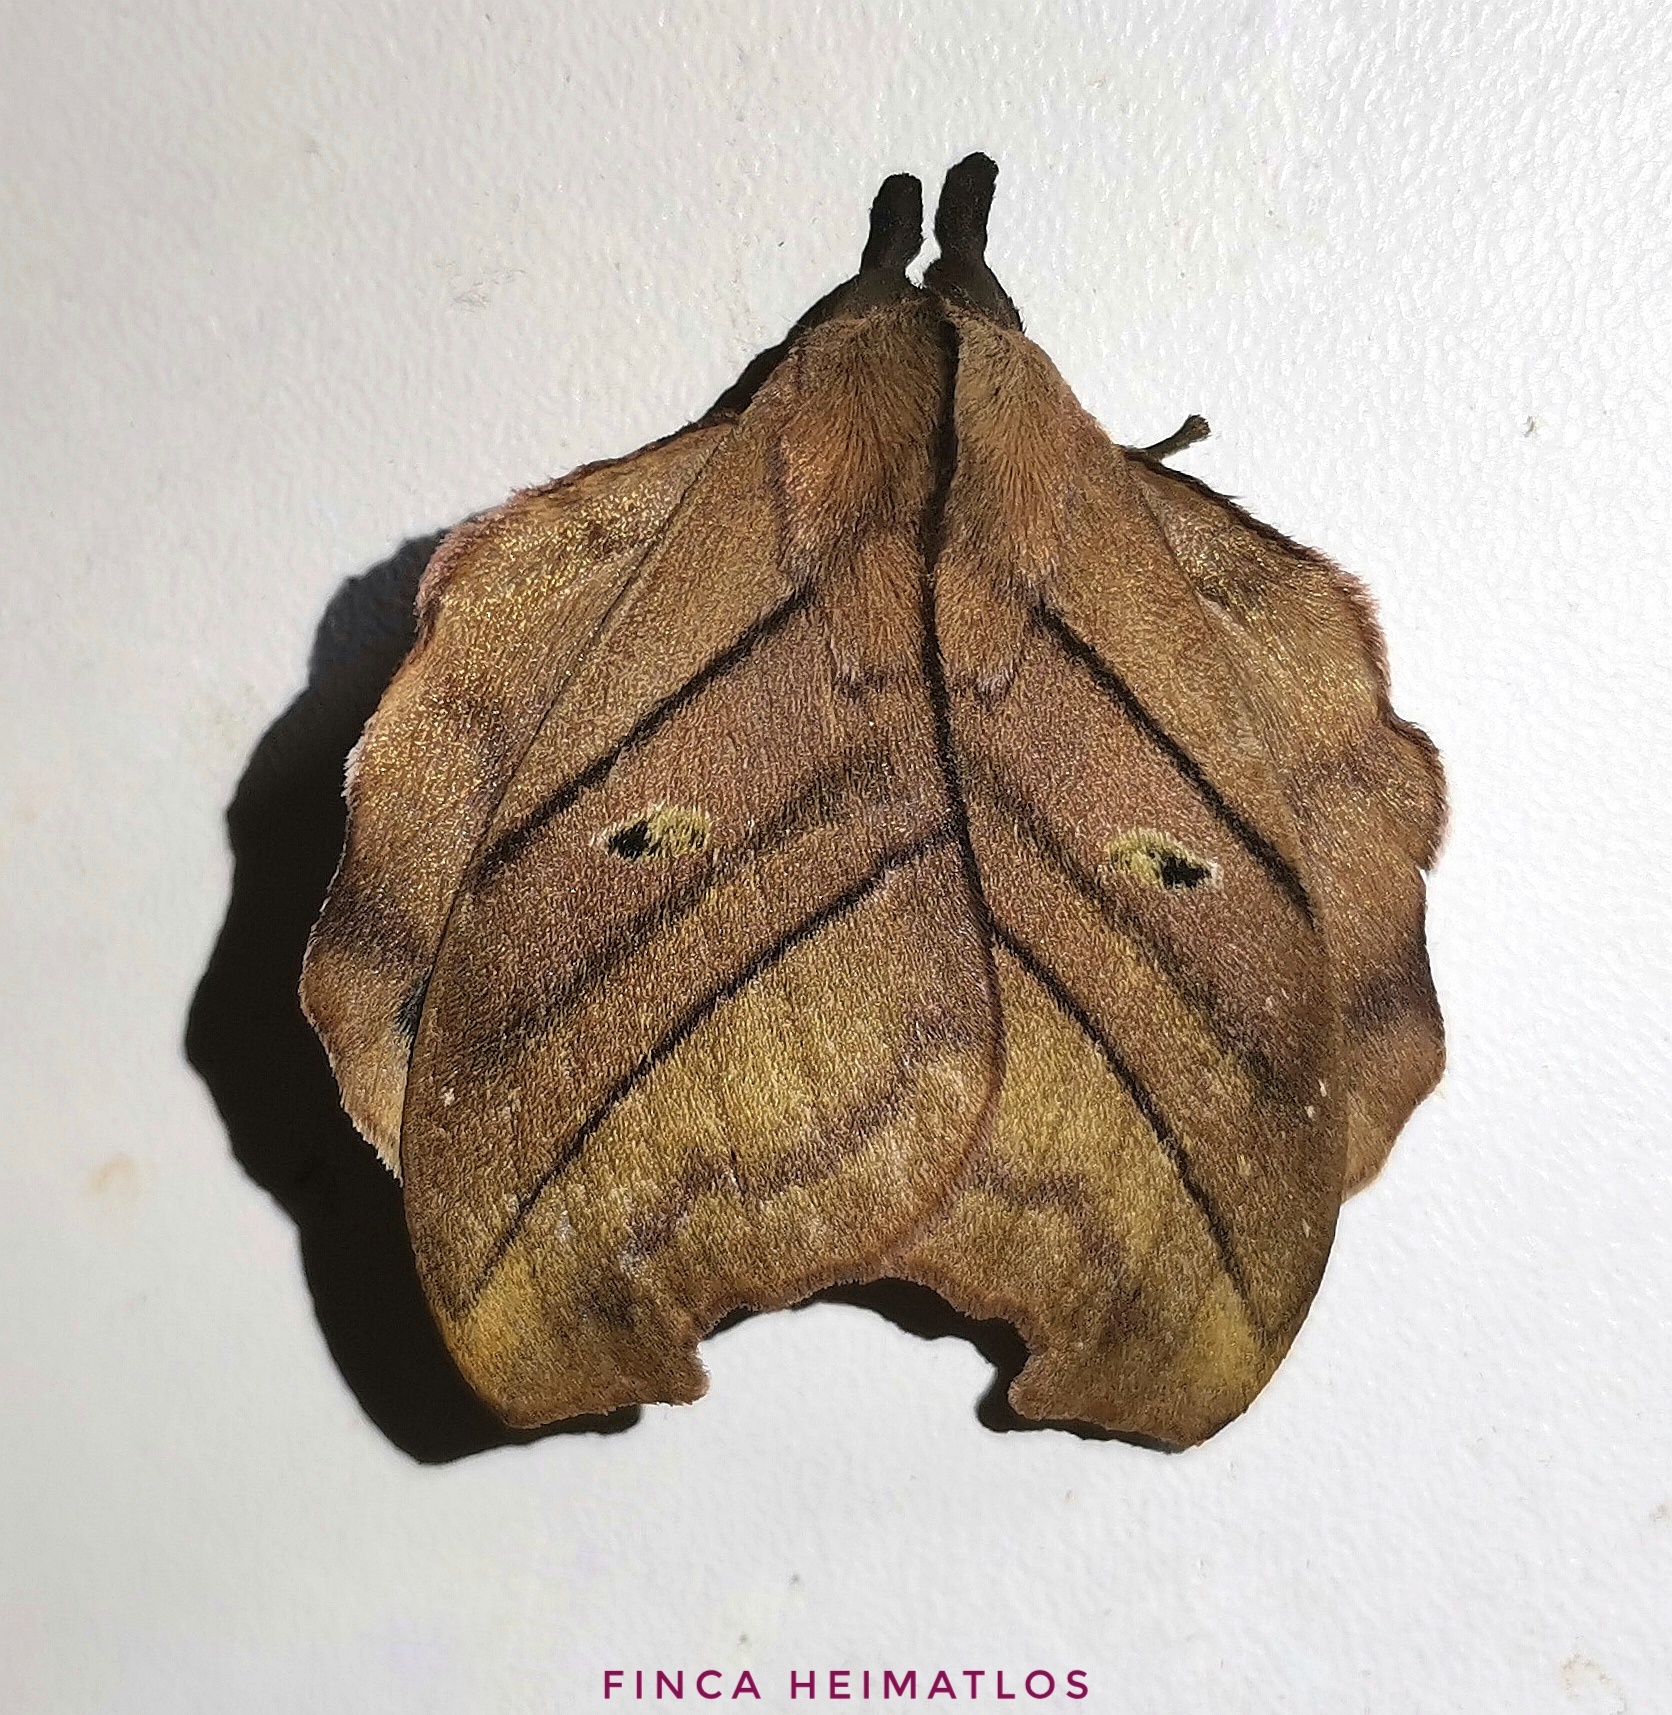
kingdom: Animalia
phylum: Arthropoda
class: Insecta
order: Lepidoptera
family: Saturniidae
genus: Hyperchiria
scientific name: Hyperchiria nausica
